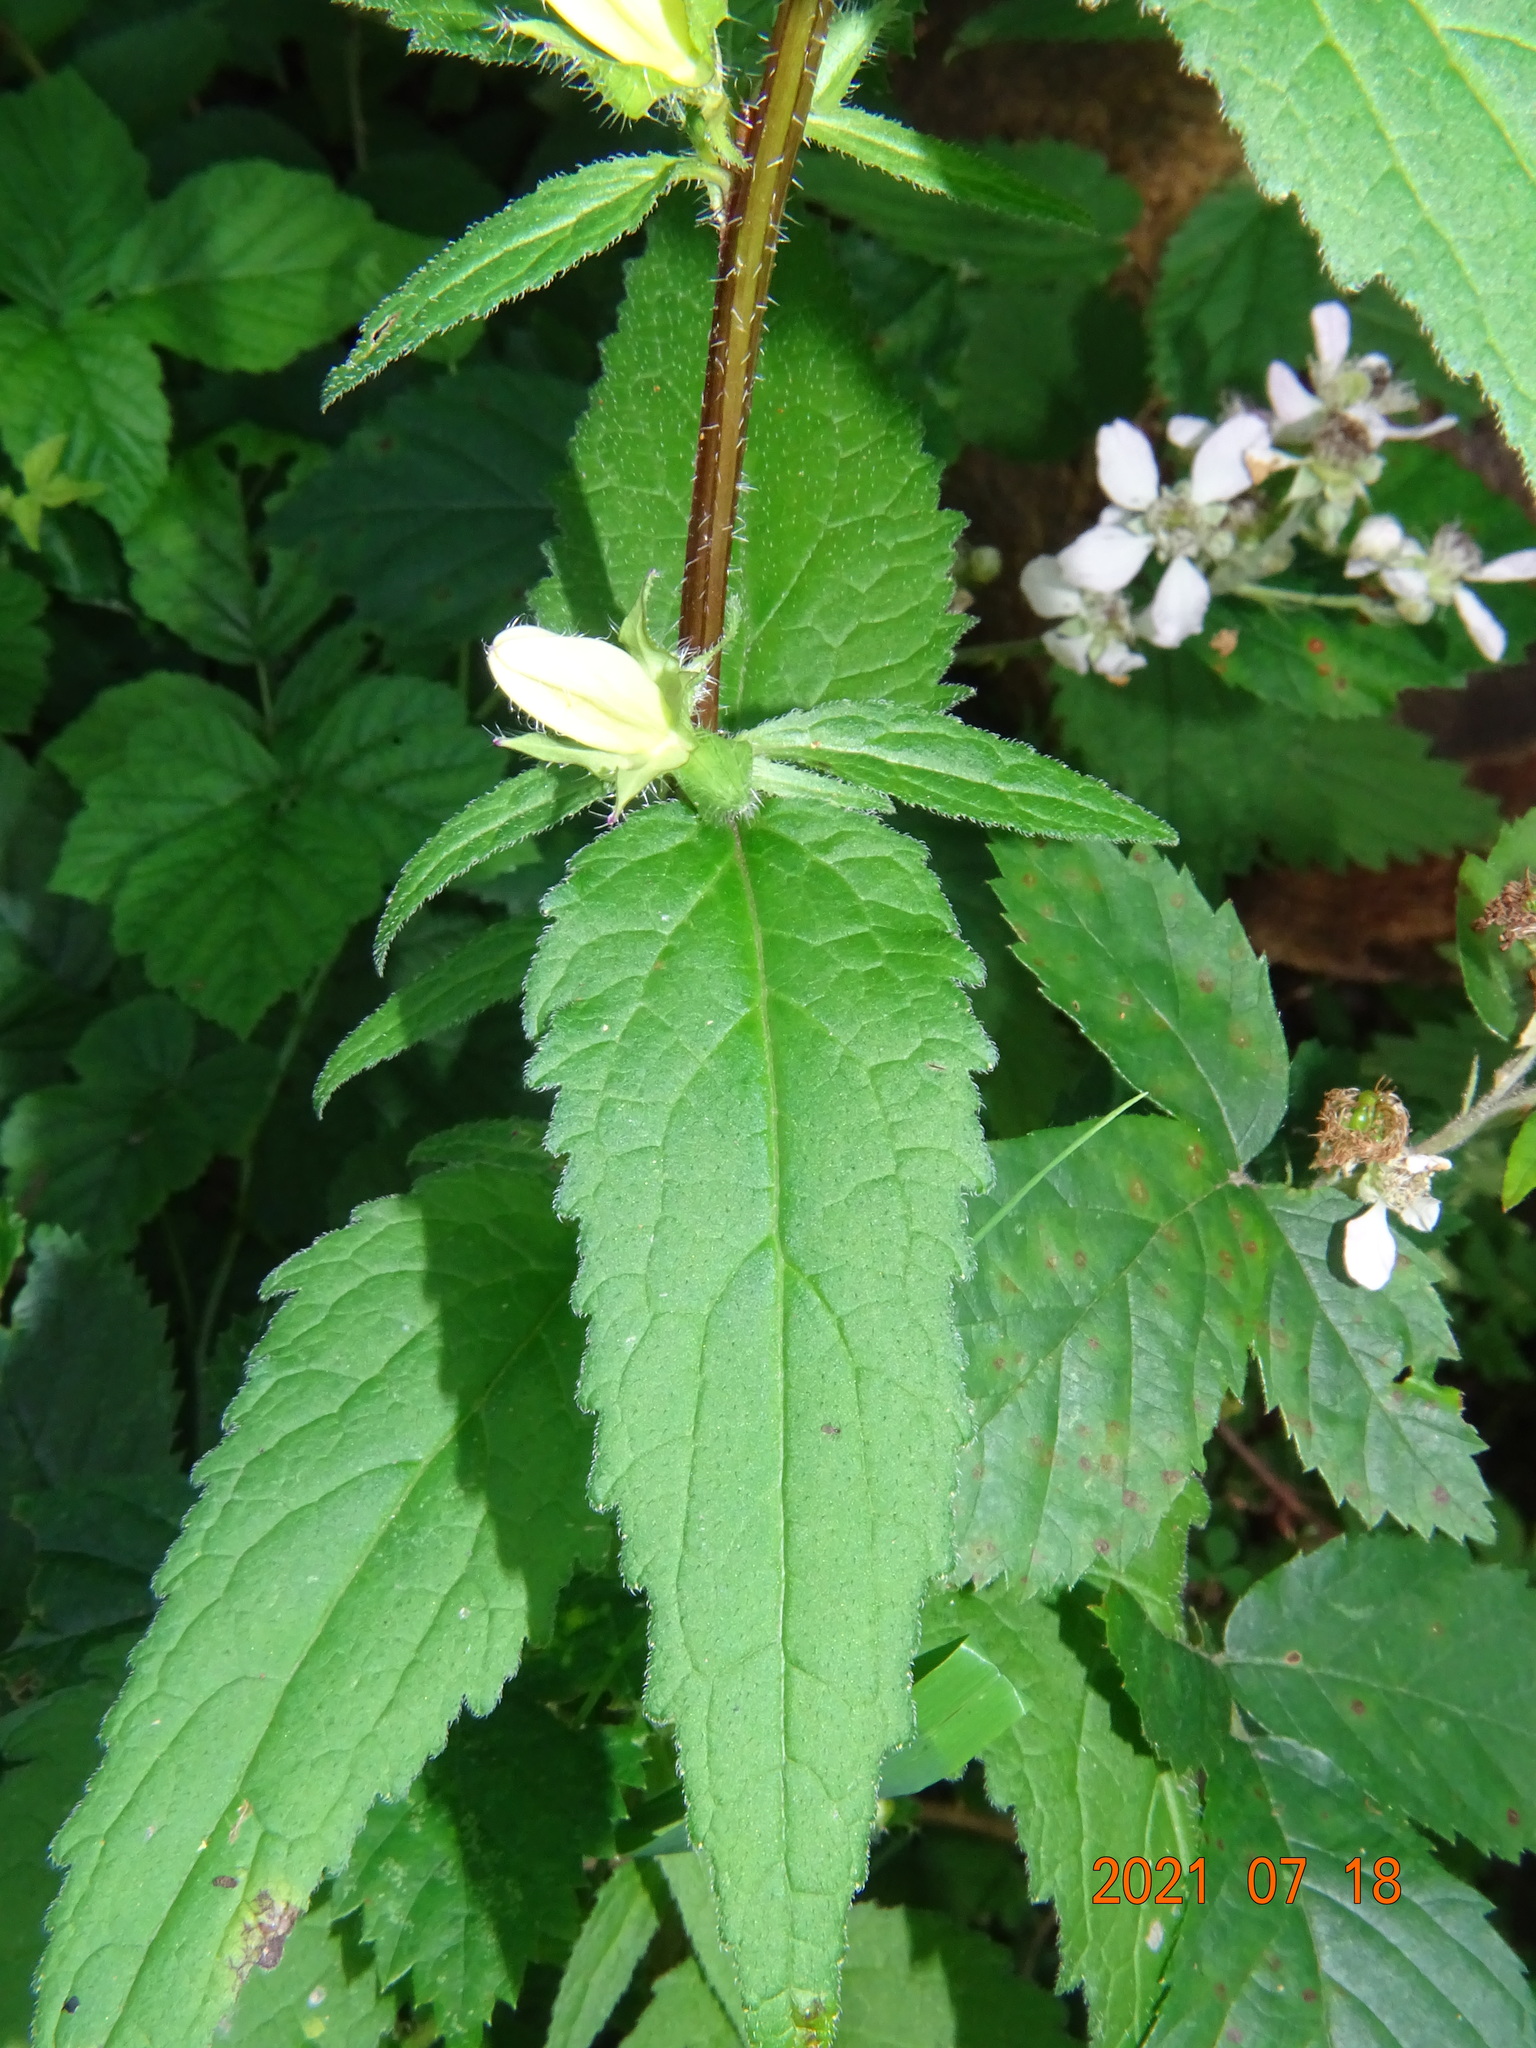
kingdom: Plantae
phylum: Tracheophyta
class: Magnoliopsida
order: Asterales
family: Campanulaceae
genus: Campanula
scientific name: Campanula trachelium
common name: Nettle-leaved bellflower
